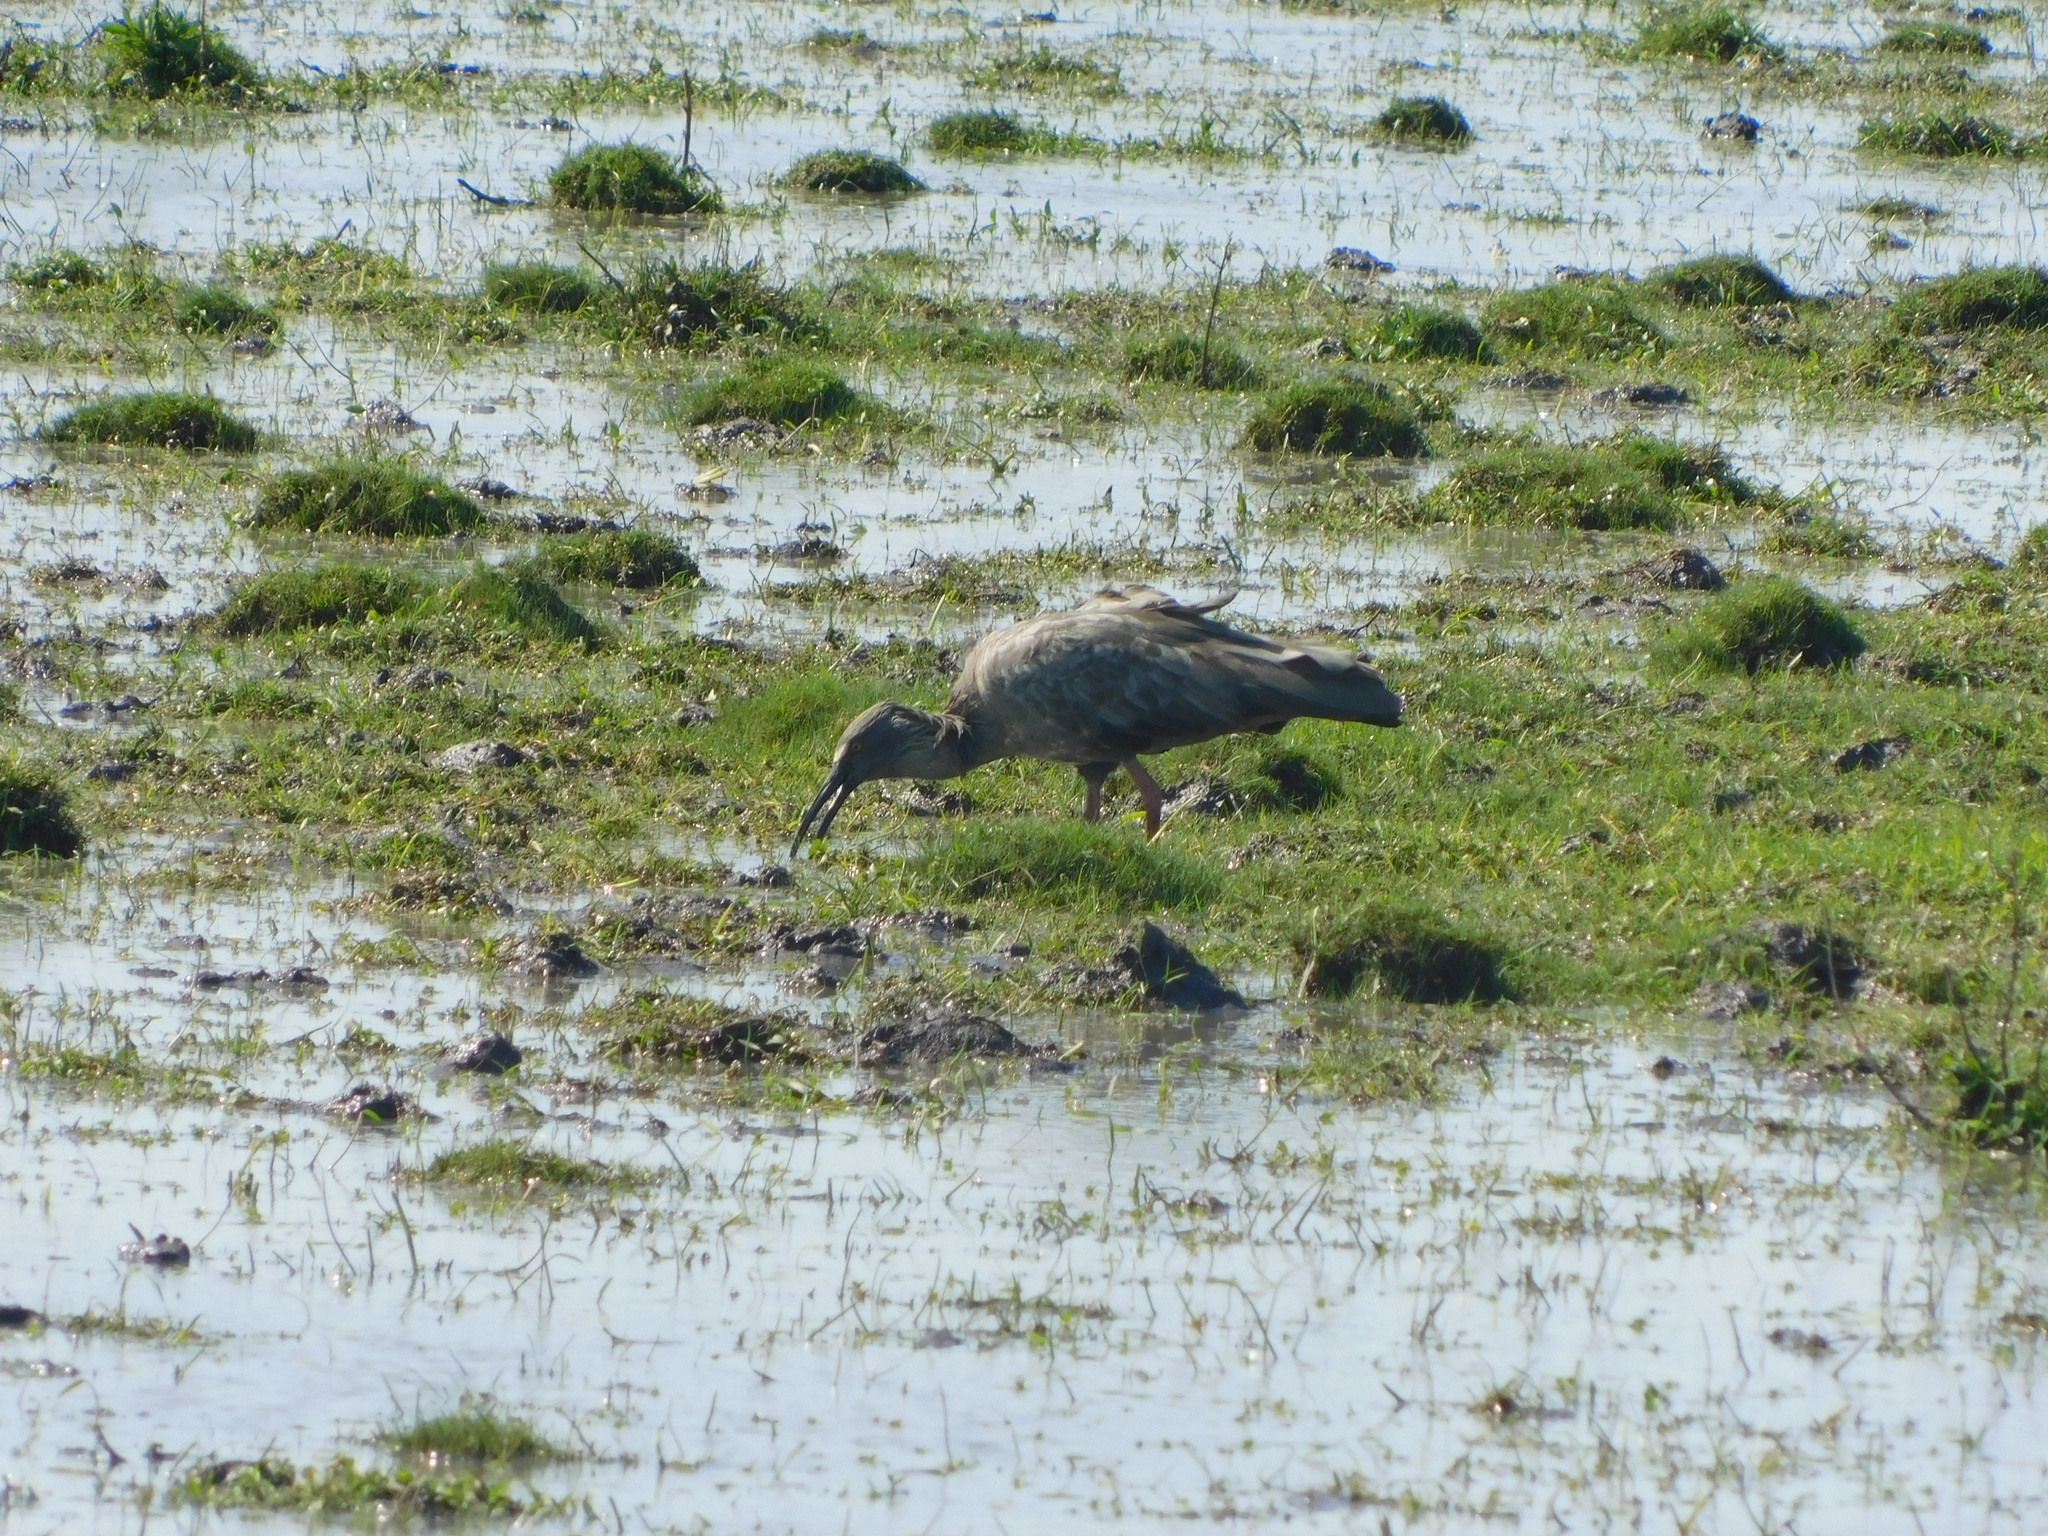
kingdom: Animalia
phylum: Chordata
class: Aves
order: Pelecaniformes
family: Threskiornithidae
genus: Theristicus
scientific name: Theristicus caerulescens
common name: Plumbeous ibis
